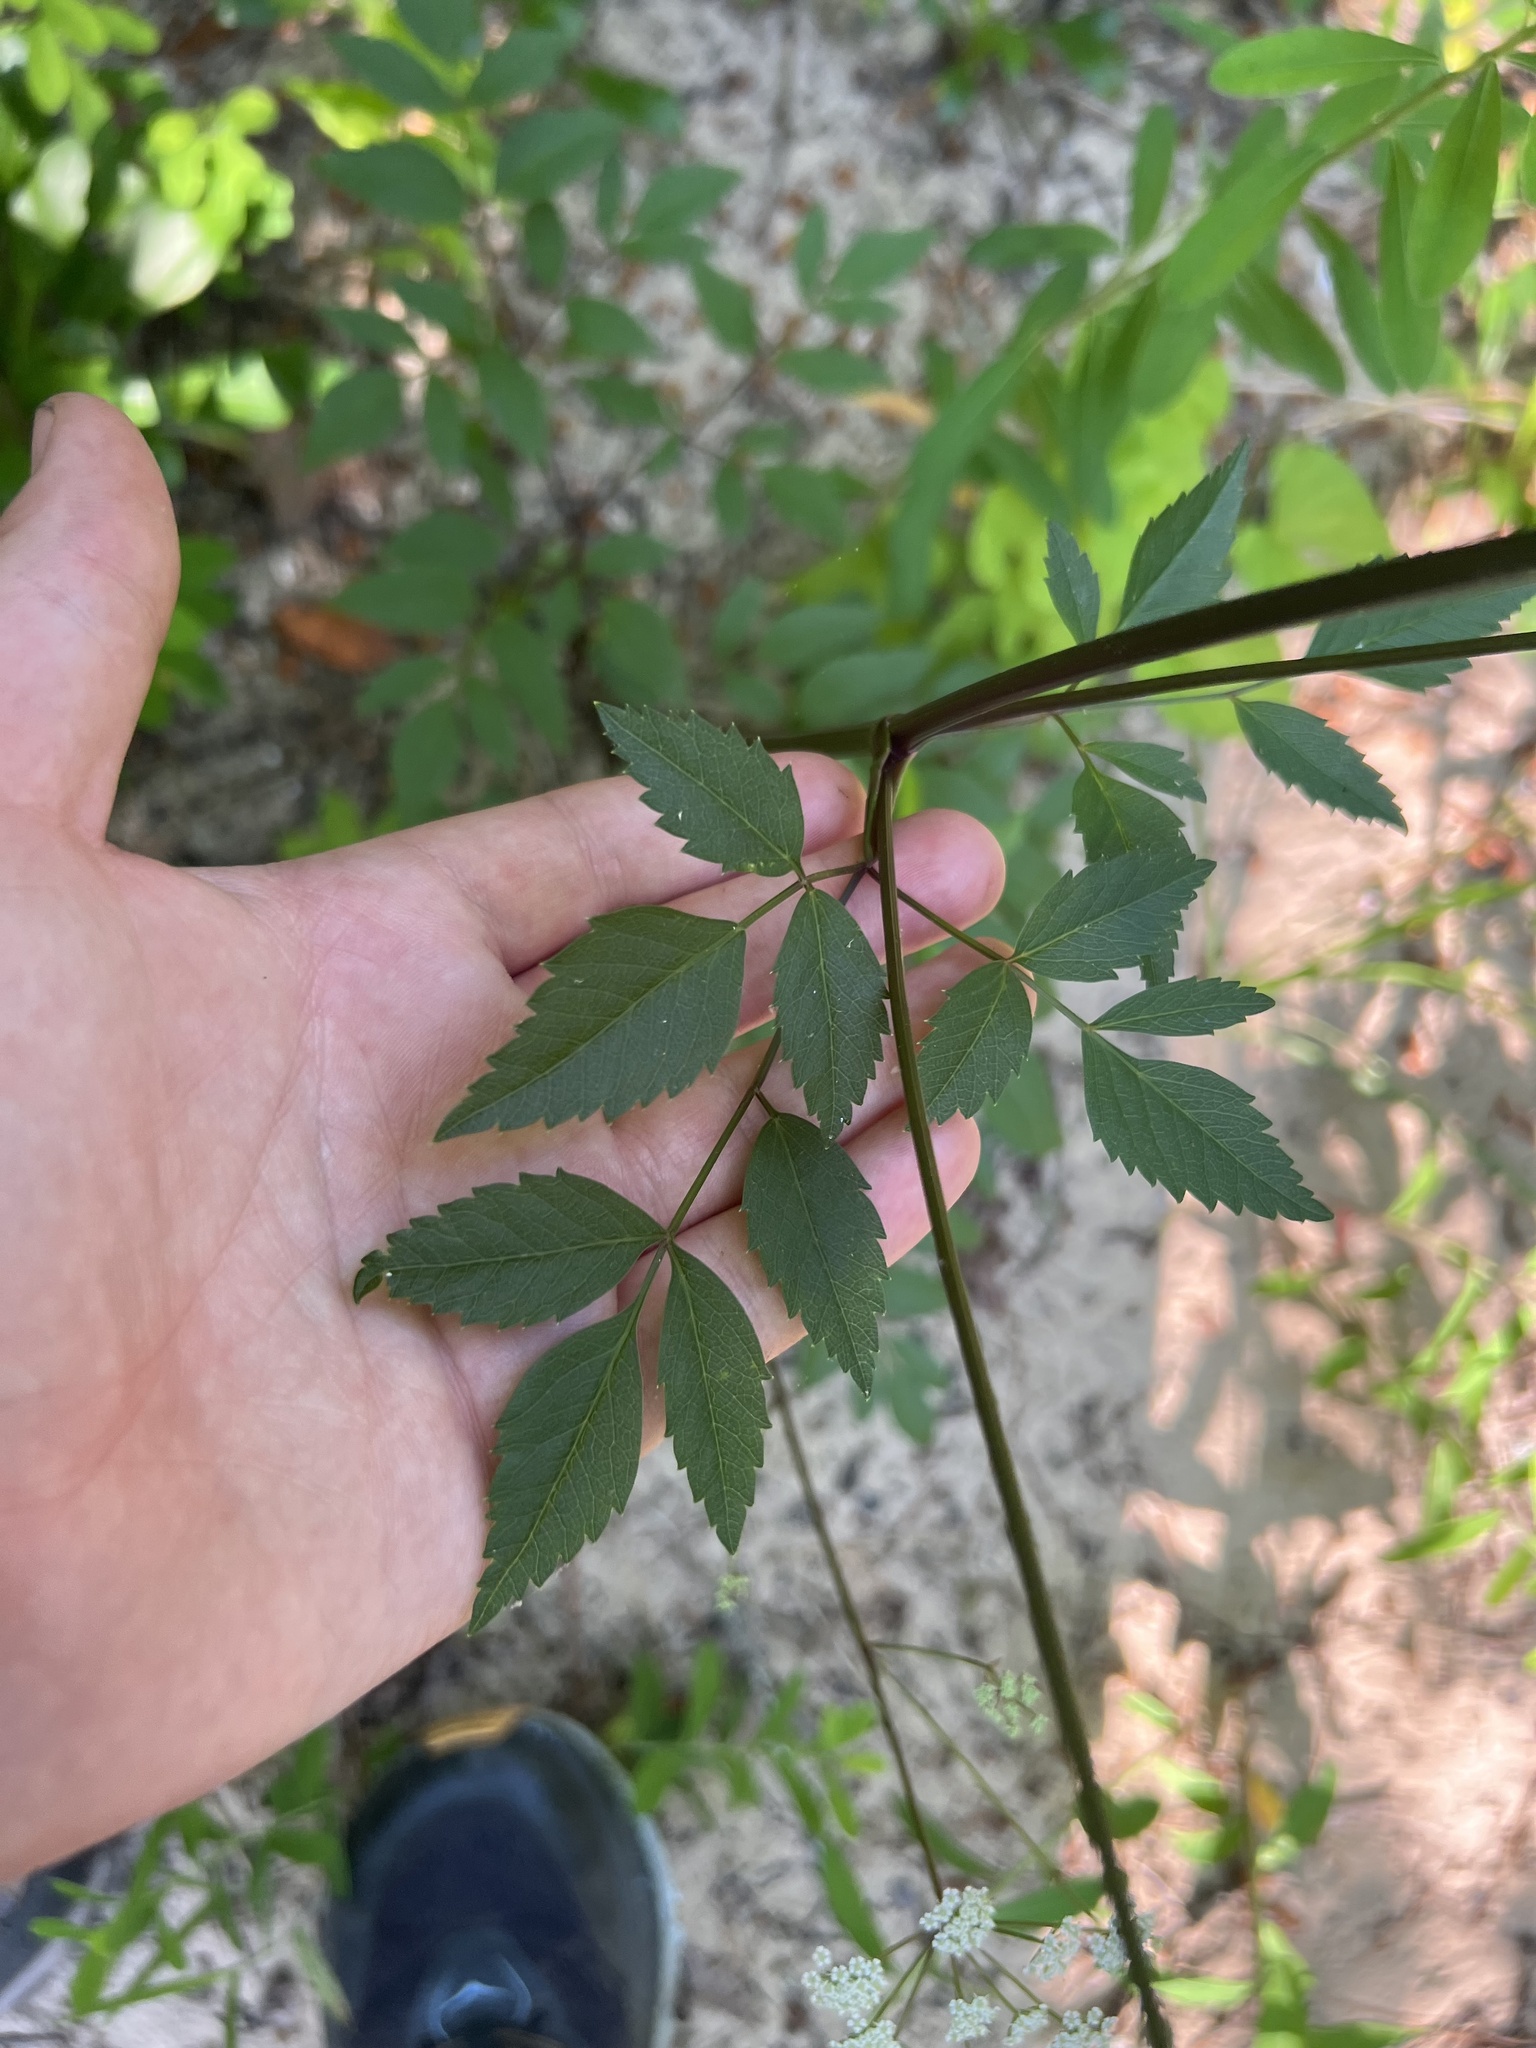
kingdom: Plantae
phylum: Tracheophyta
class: Magnoliopsida
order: Apiales
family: Apiaceae
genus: Ligusticum
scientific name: Ligusticum canadense
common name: American lovage
